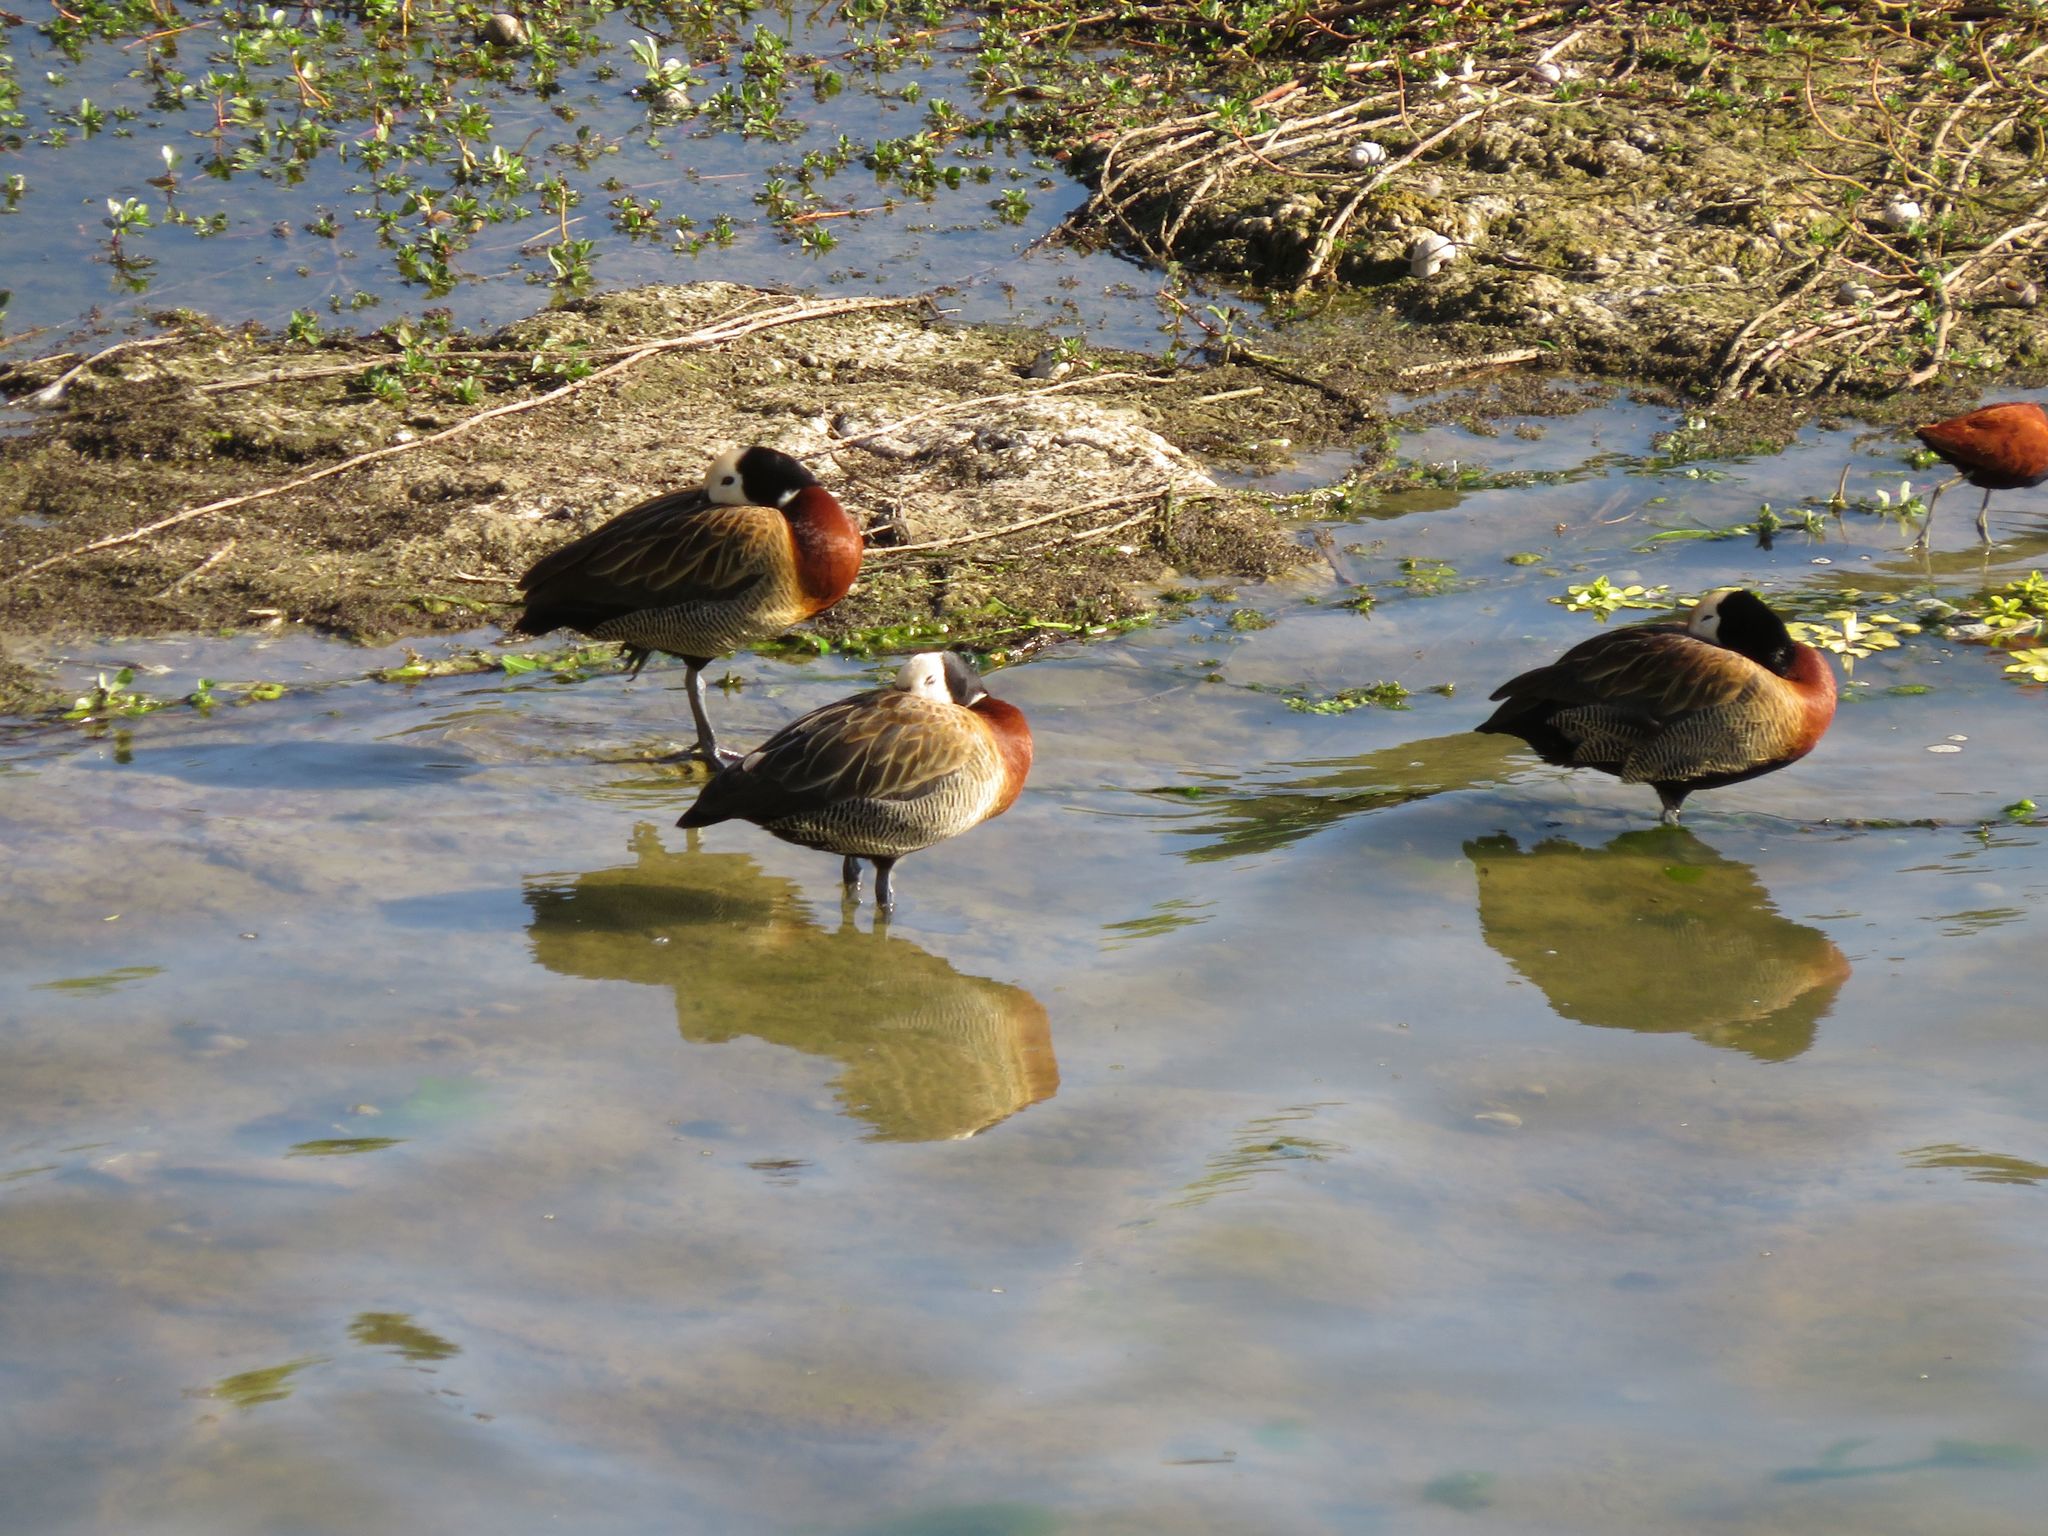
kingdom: Animalia
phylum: Chordata
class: Aves
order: Anseriformes
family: Anatidae
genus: Dendrocygna
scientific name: Dendrocygna viduata
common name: White-faced whistling duck
